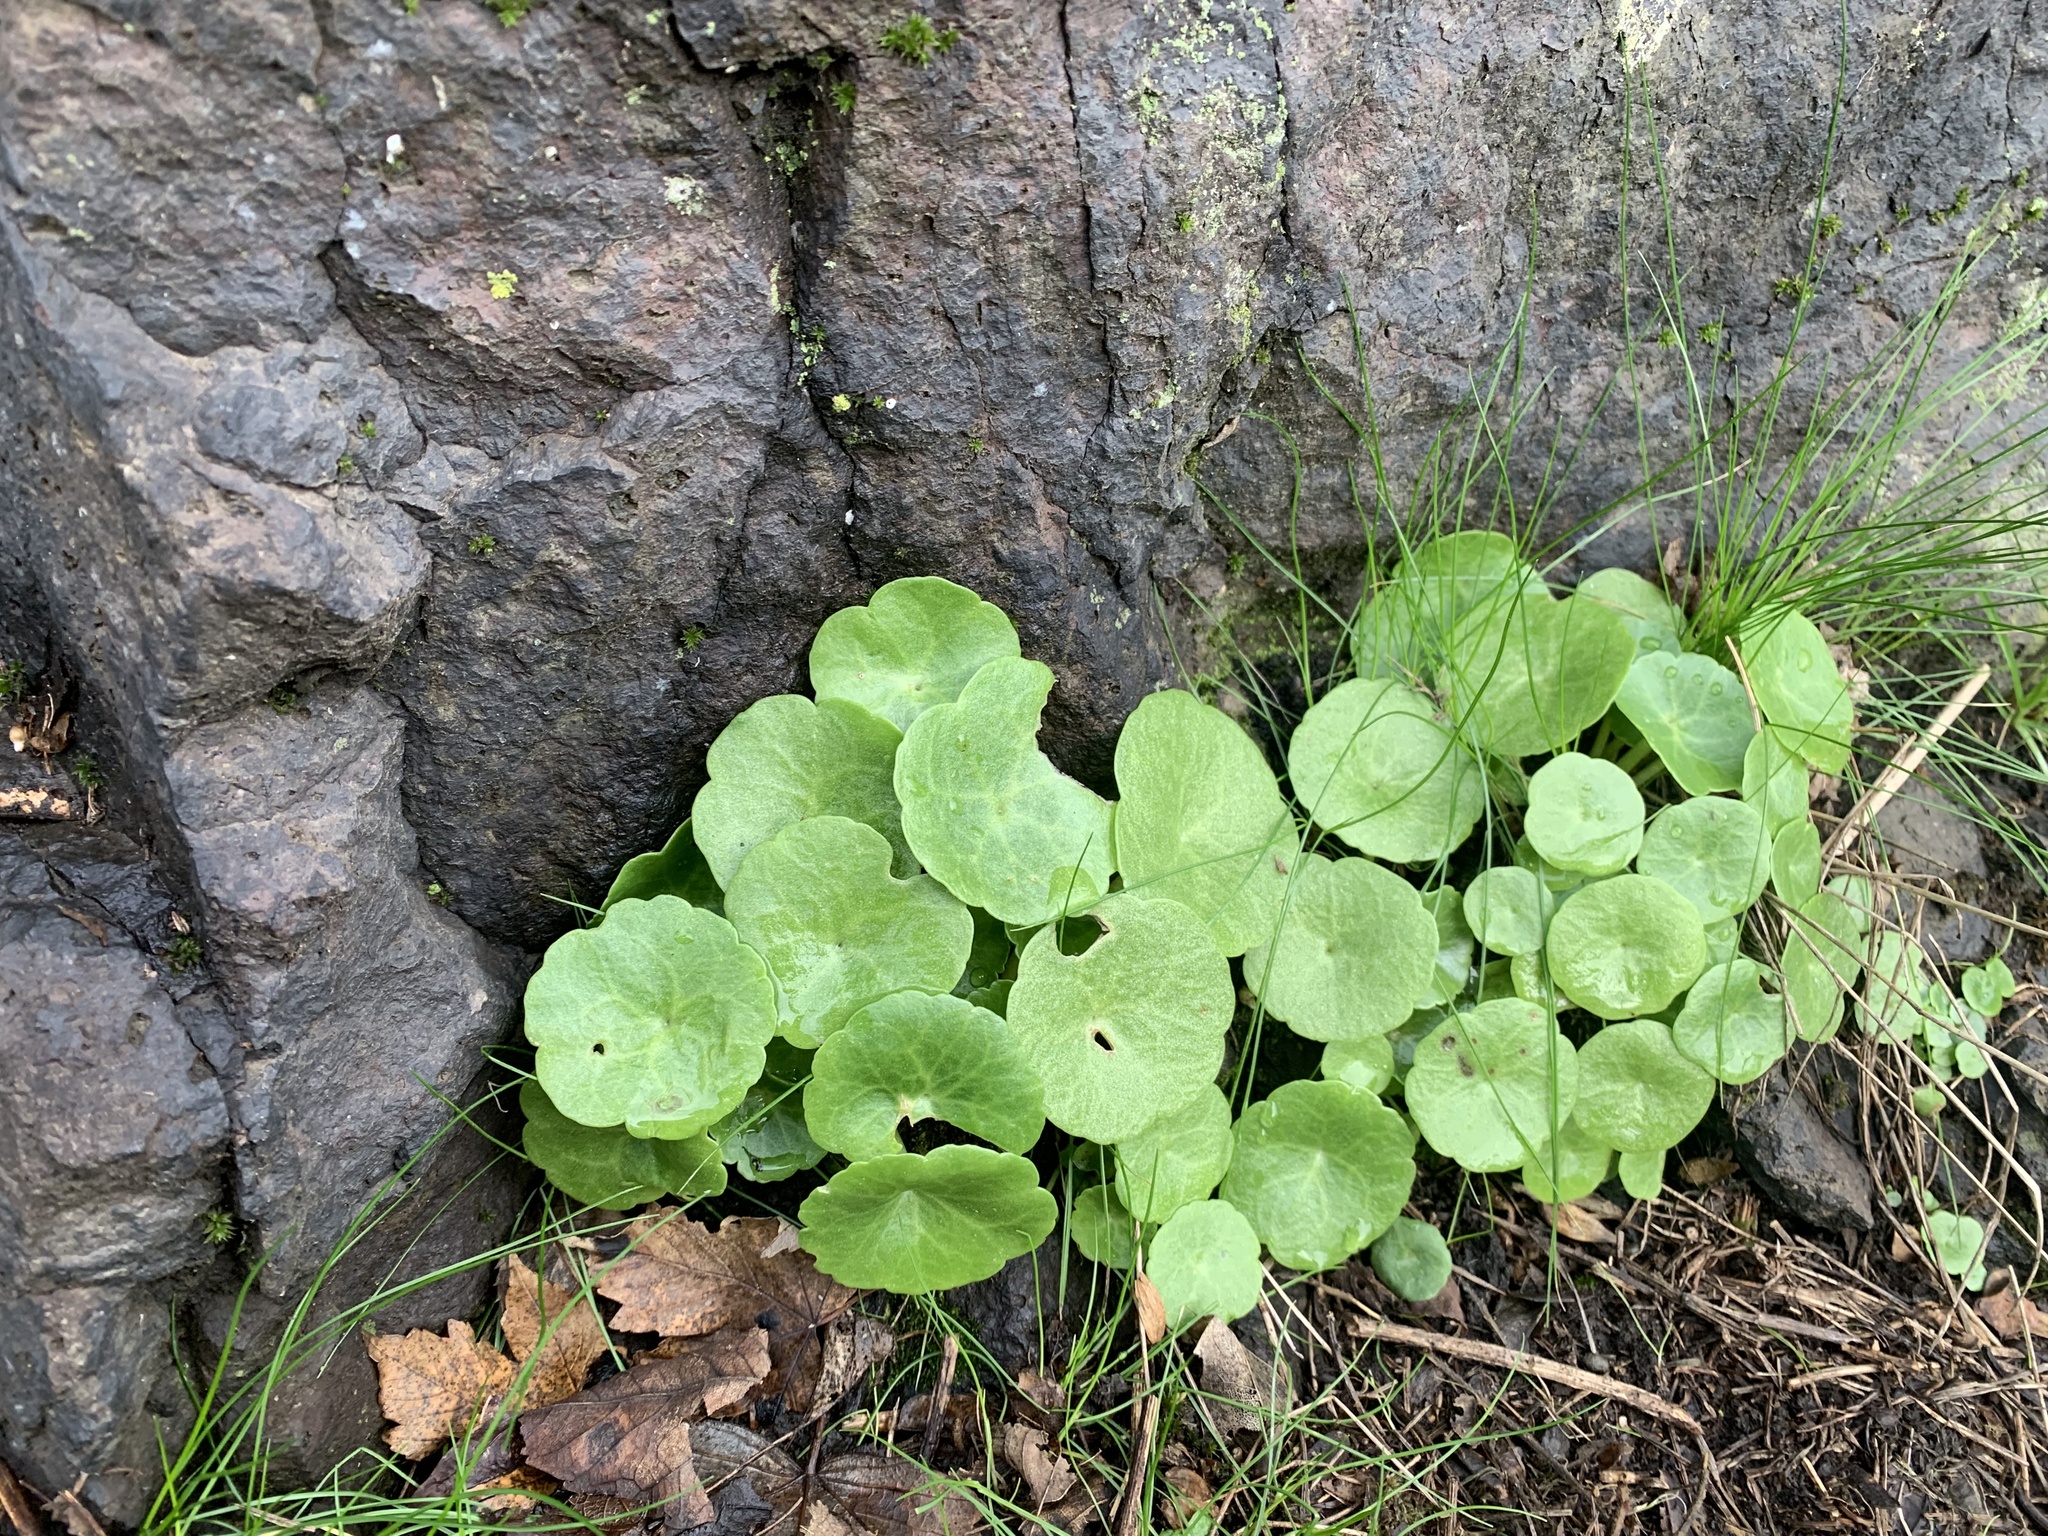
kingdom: Plantae
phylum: Tracheophyta
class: Magnoliopsida
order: Saxifragales
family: Crassulaceae
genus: Umbilicus
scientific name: Umbilicus rupestris
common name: Navelwort
